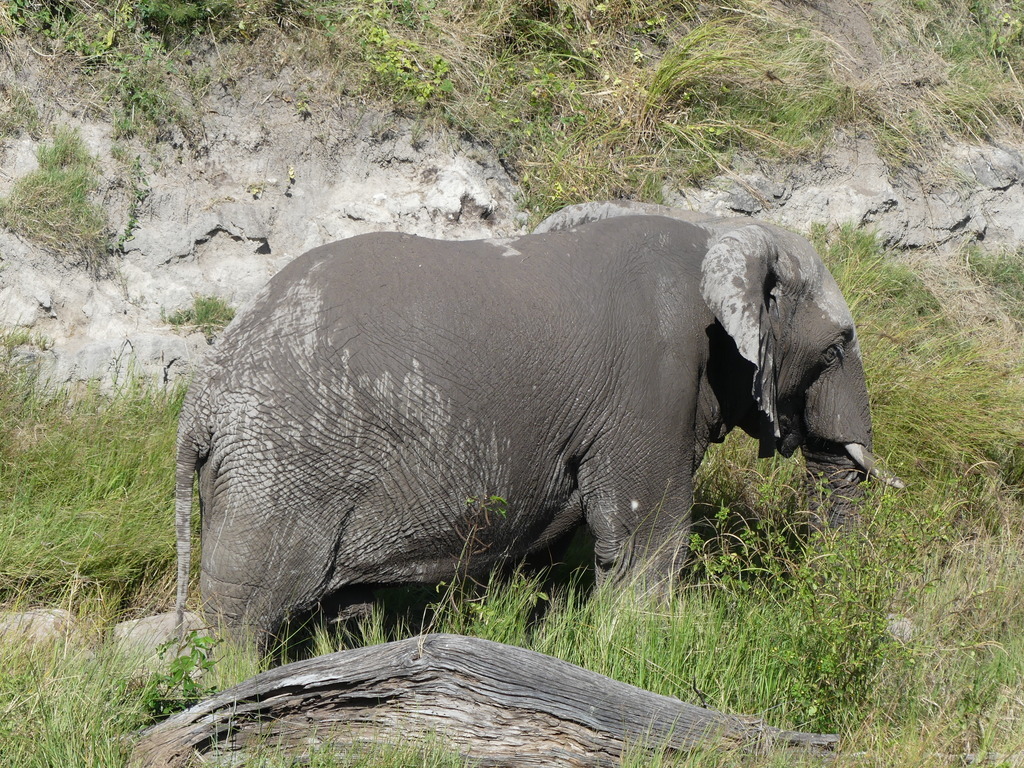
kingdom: Animalia
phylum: Chordata
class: Mammalia
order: Proboscidea
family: Elephantidae
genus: Loxodonta
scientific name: Loxodonta africana
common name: African elephant
